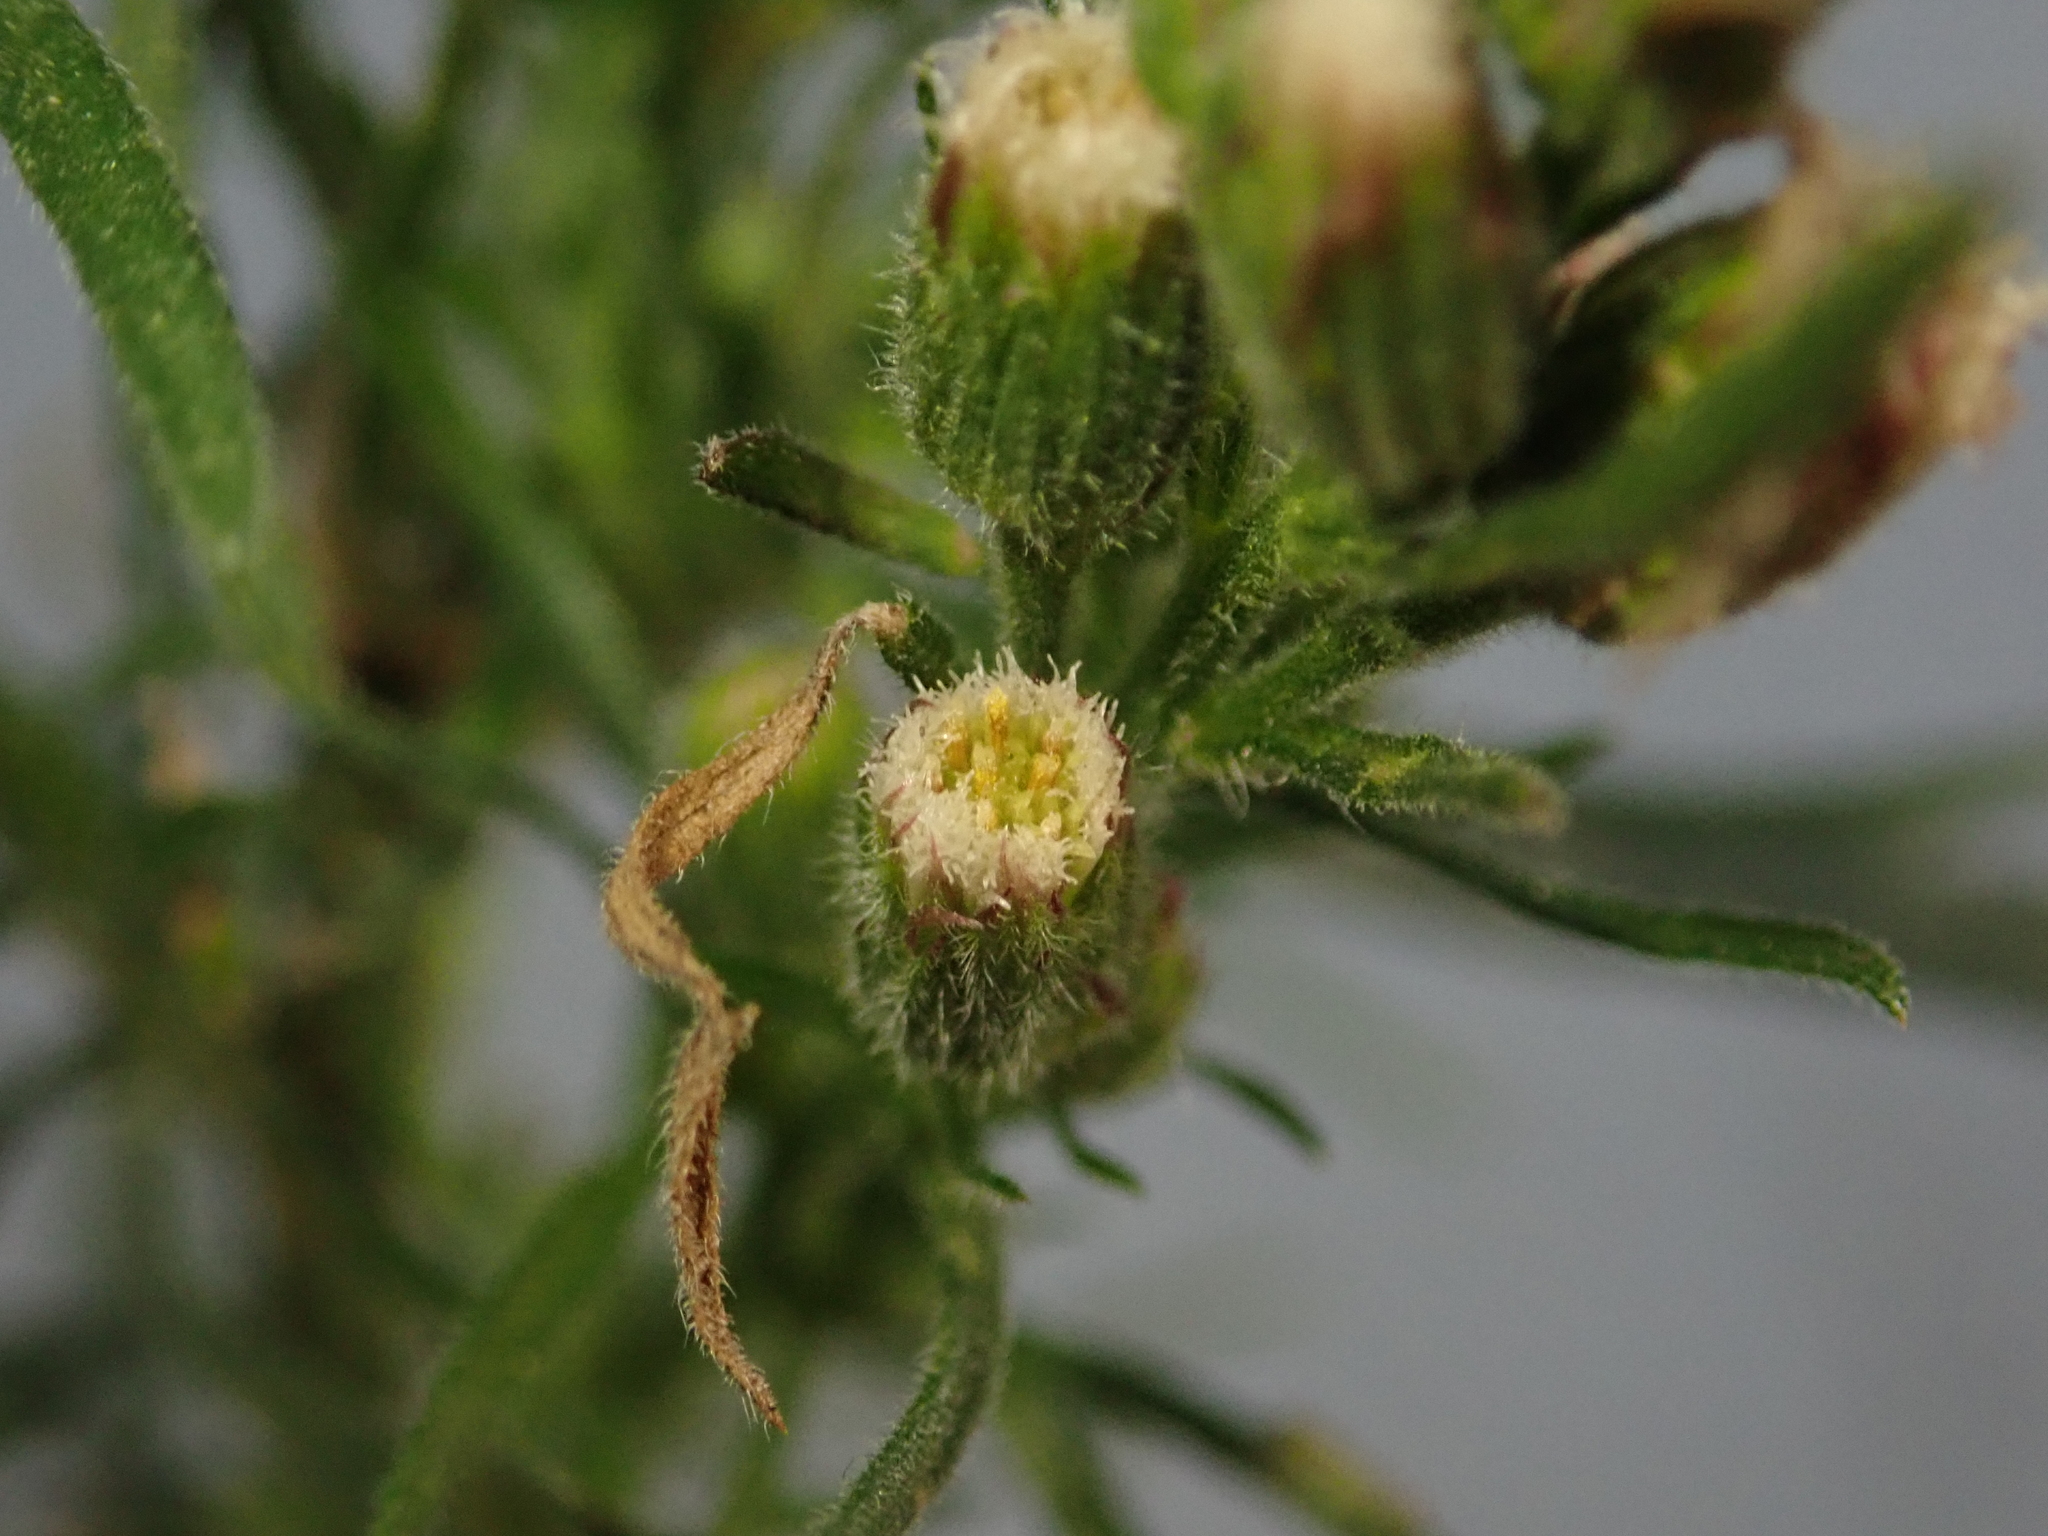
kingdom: Plantae
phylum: Tracheophyta
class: Magnoliopsida
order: Asterales
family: Asteraceae
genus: Erigeron
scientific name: Erigeron bonariensis
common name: Argentine fleabane
